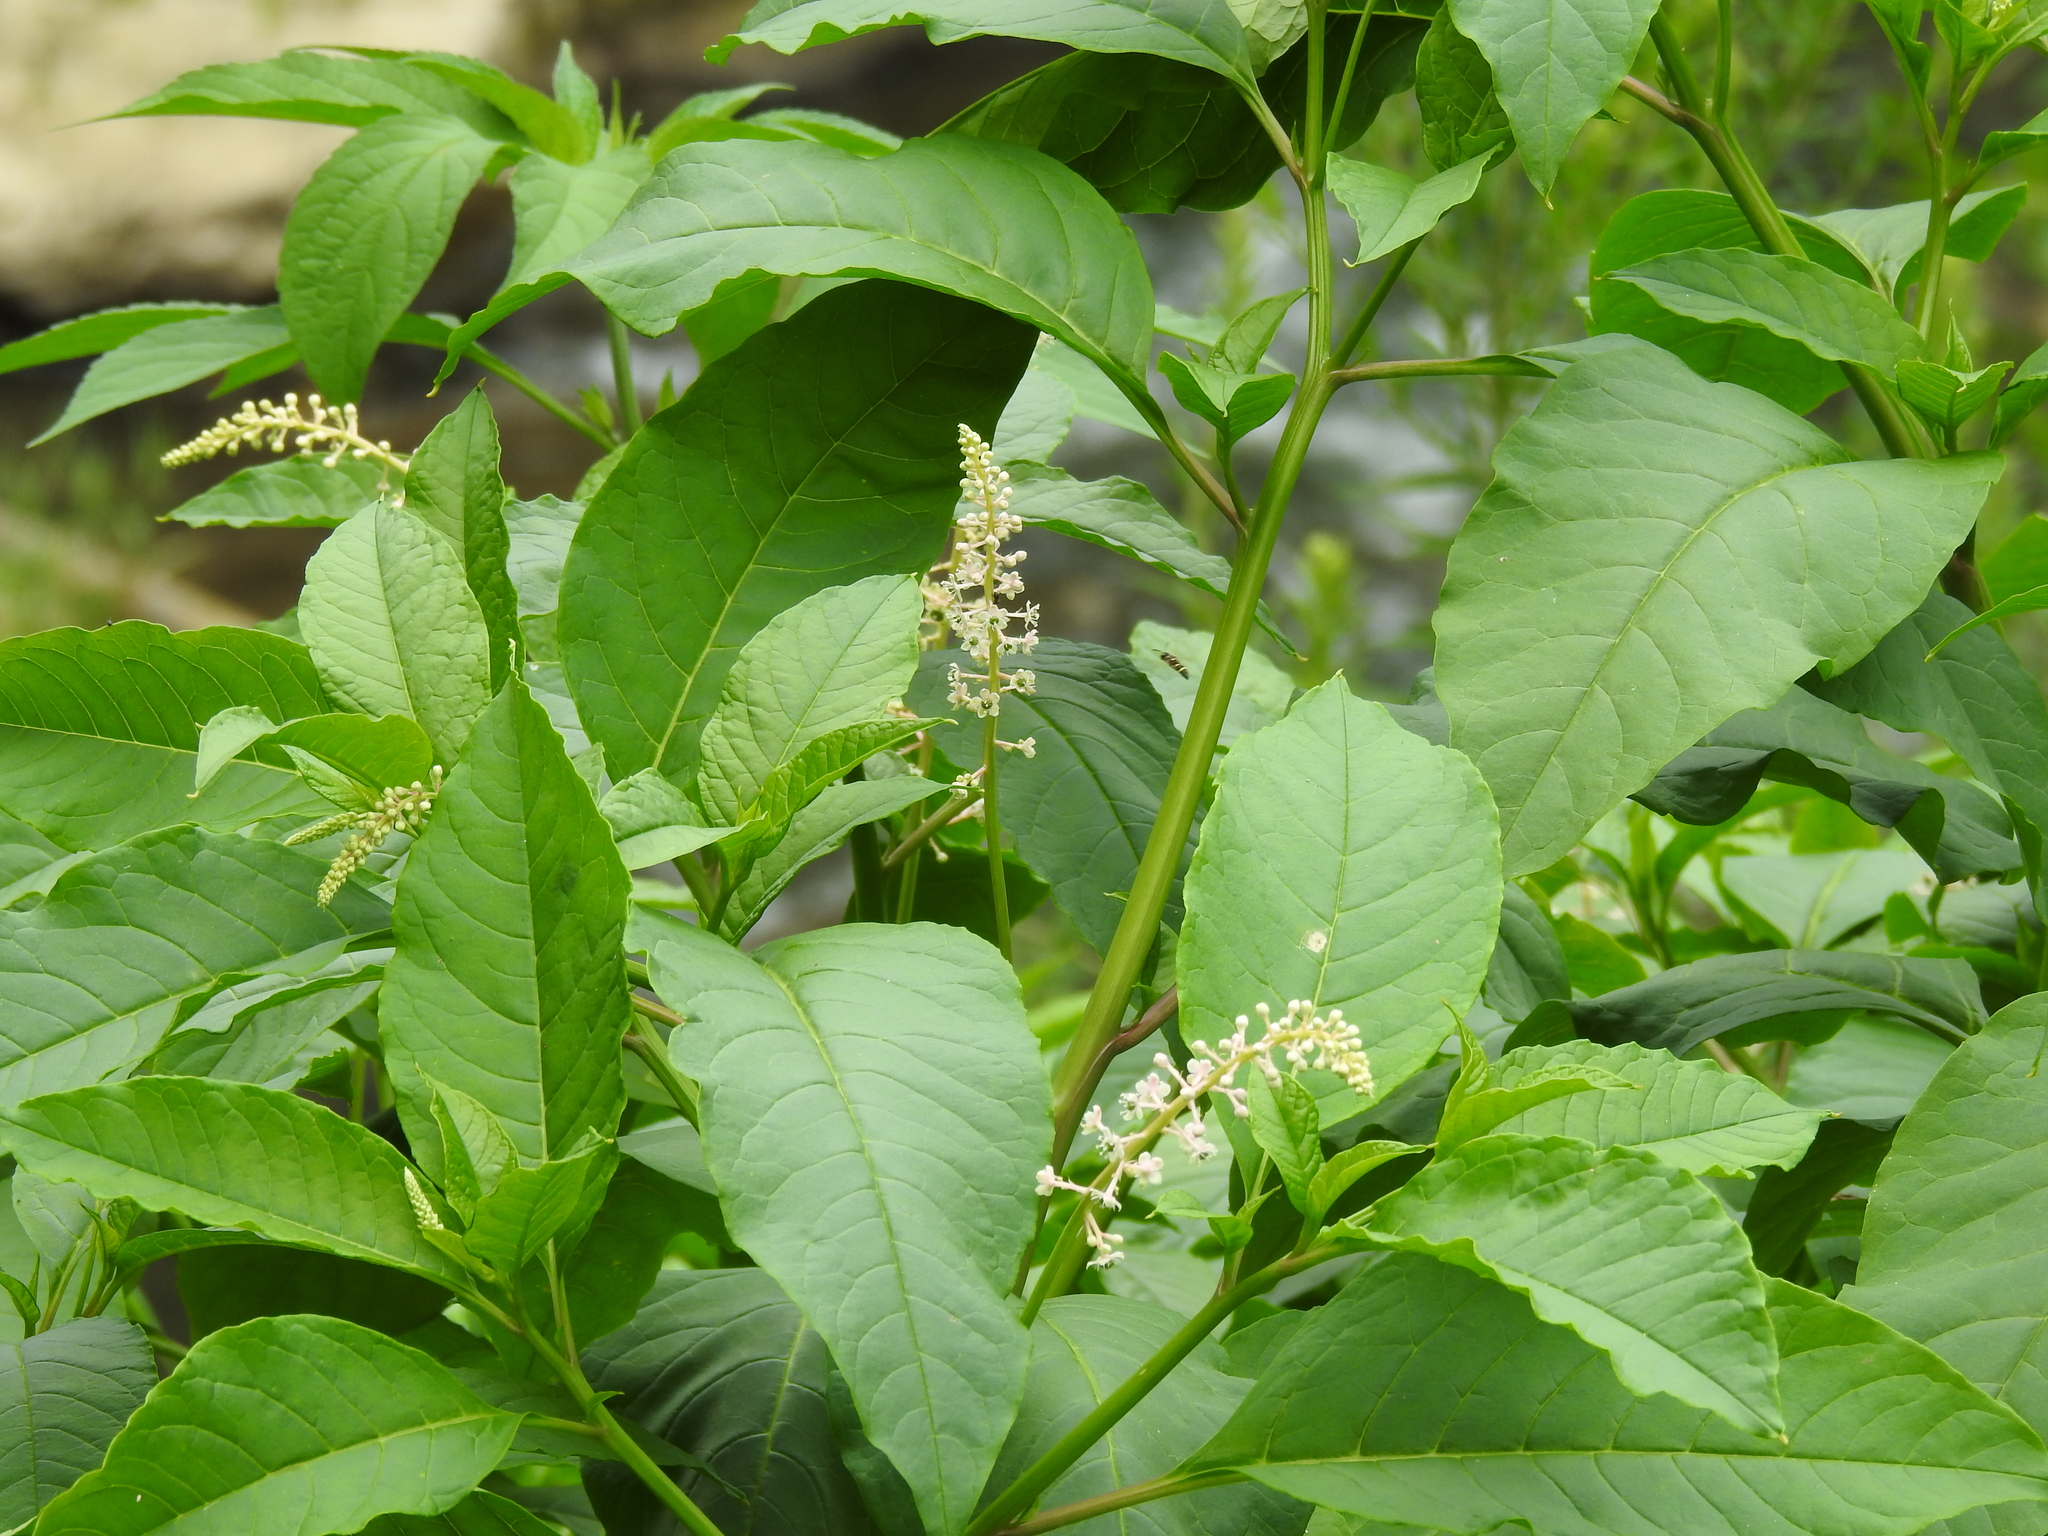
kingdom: Plantae
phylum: Tracheophyta
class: Magnoliopsida
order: Caryophyllales
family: Phytolaccaceae
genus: Phytolacca
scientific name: Phytolacca americana
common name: American pokeweed
